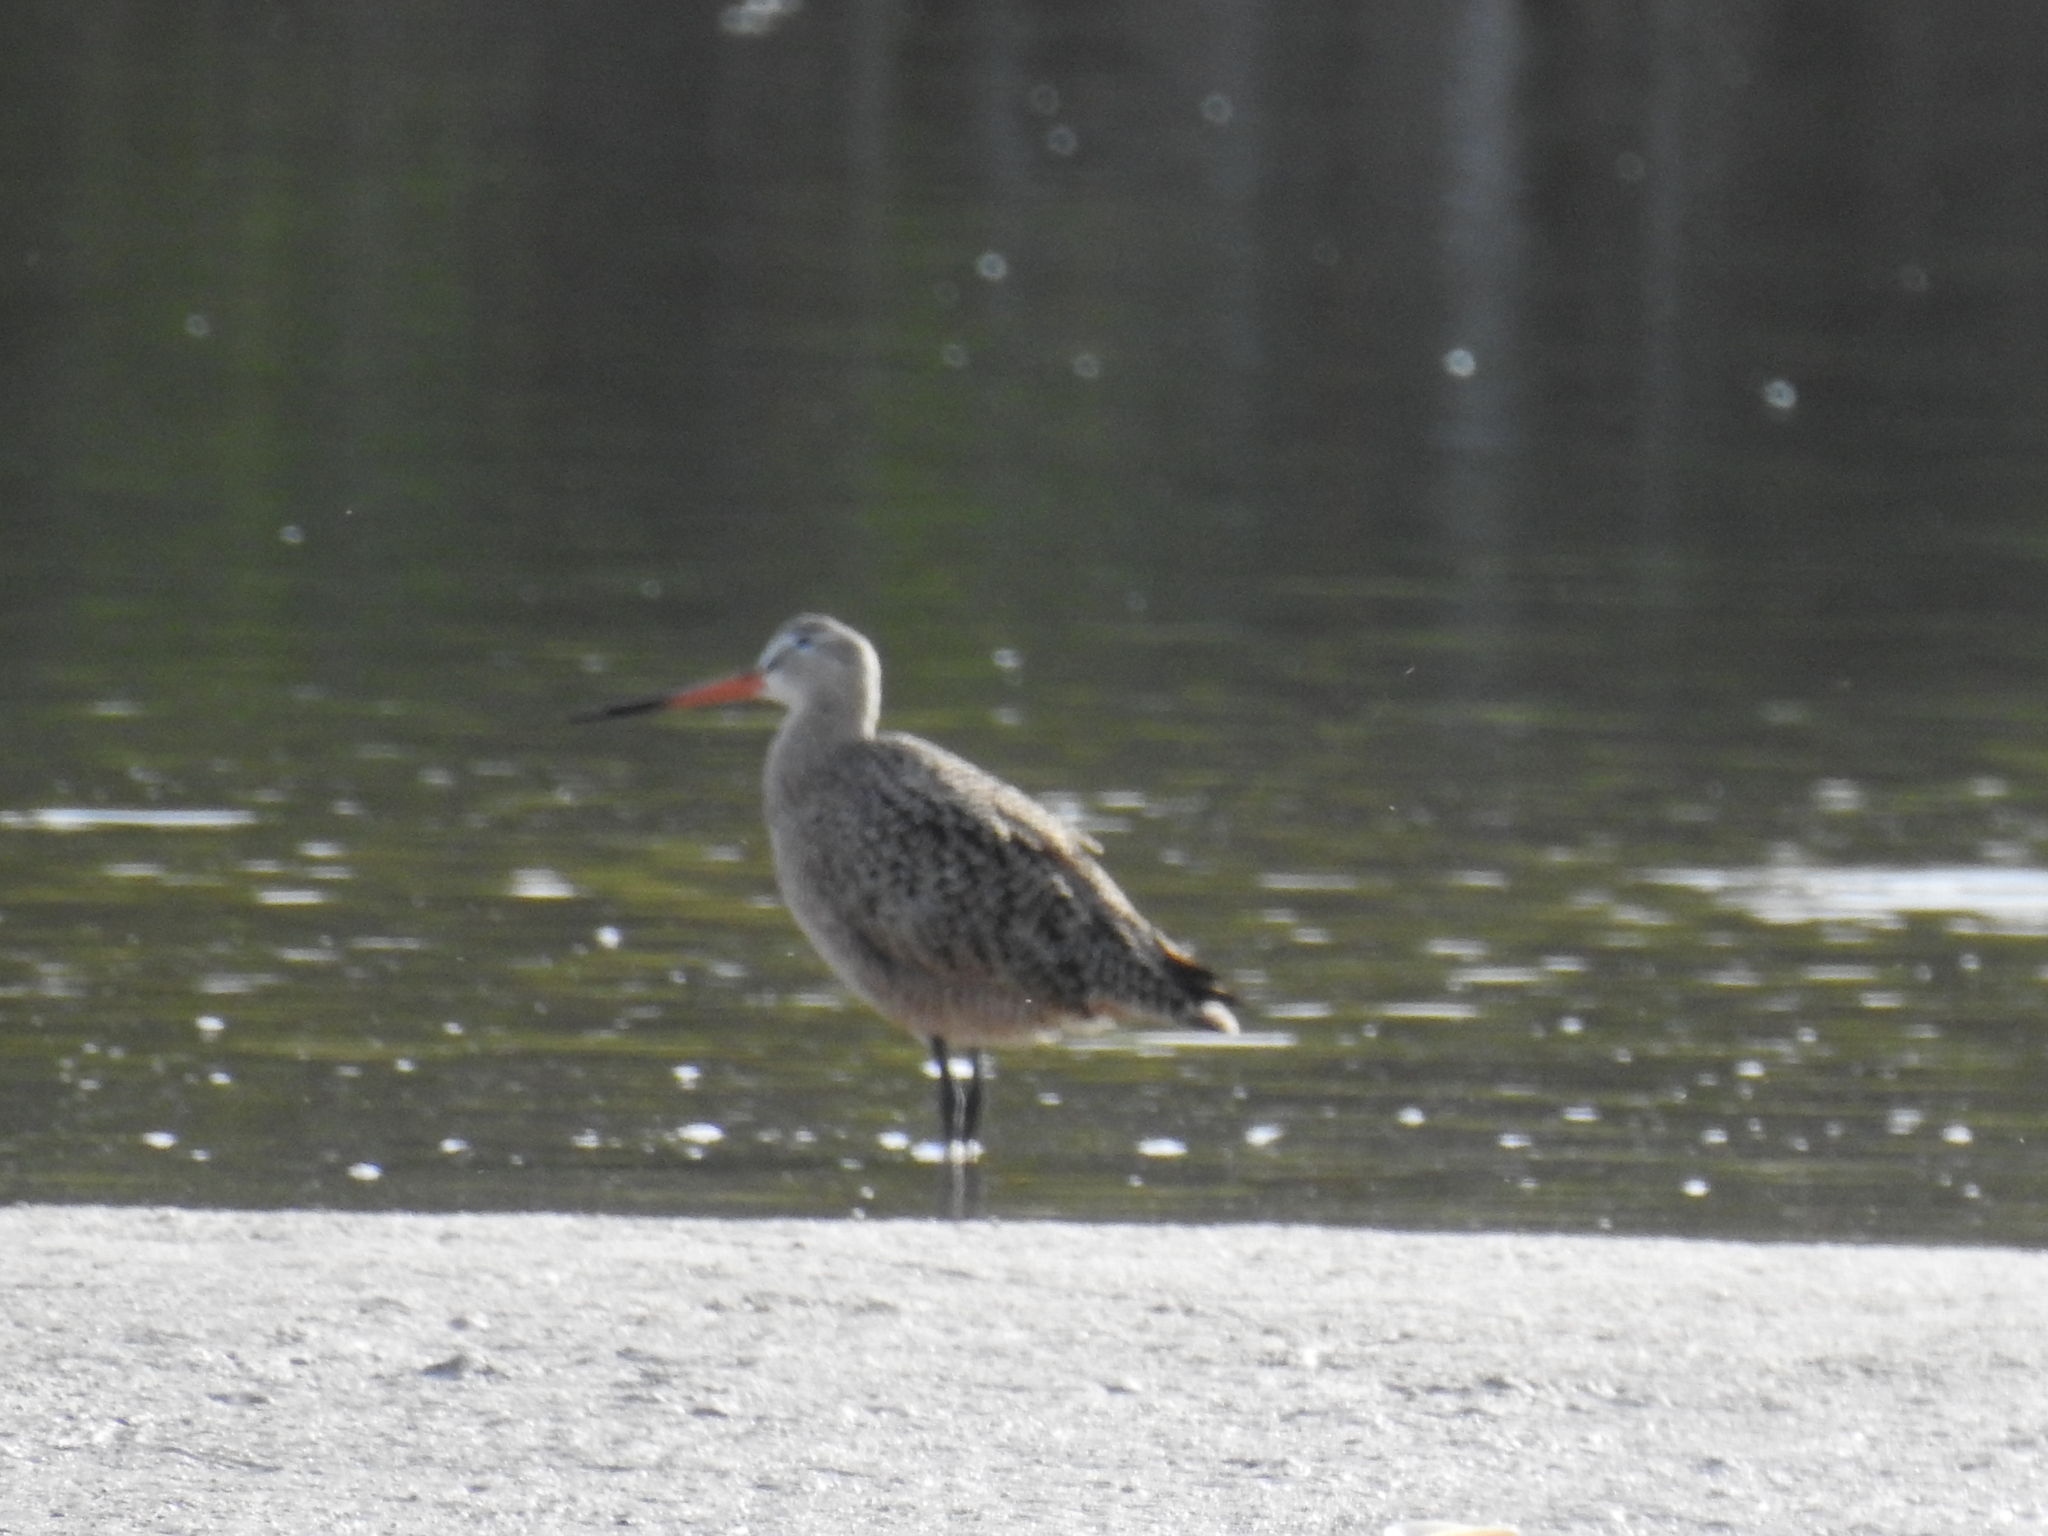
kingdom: Animalia
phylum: Chordata
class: Aves
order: Charadriiformes
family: Scolopacidae
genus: Limosa
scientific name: Limosa fedoa
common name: Marbled godwit
